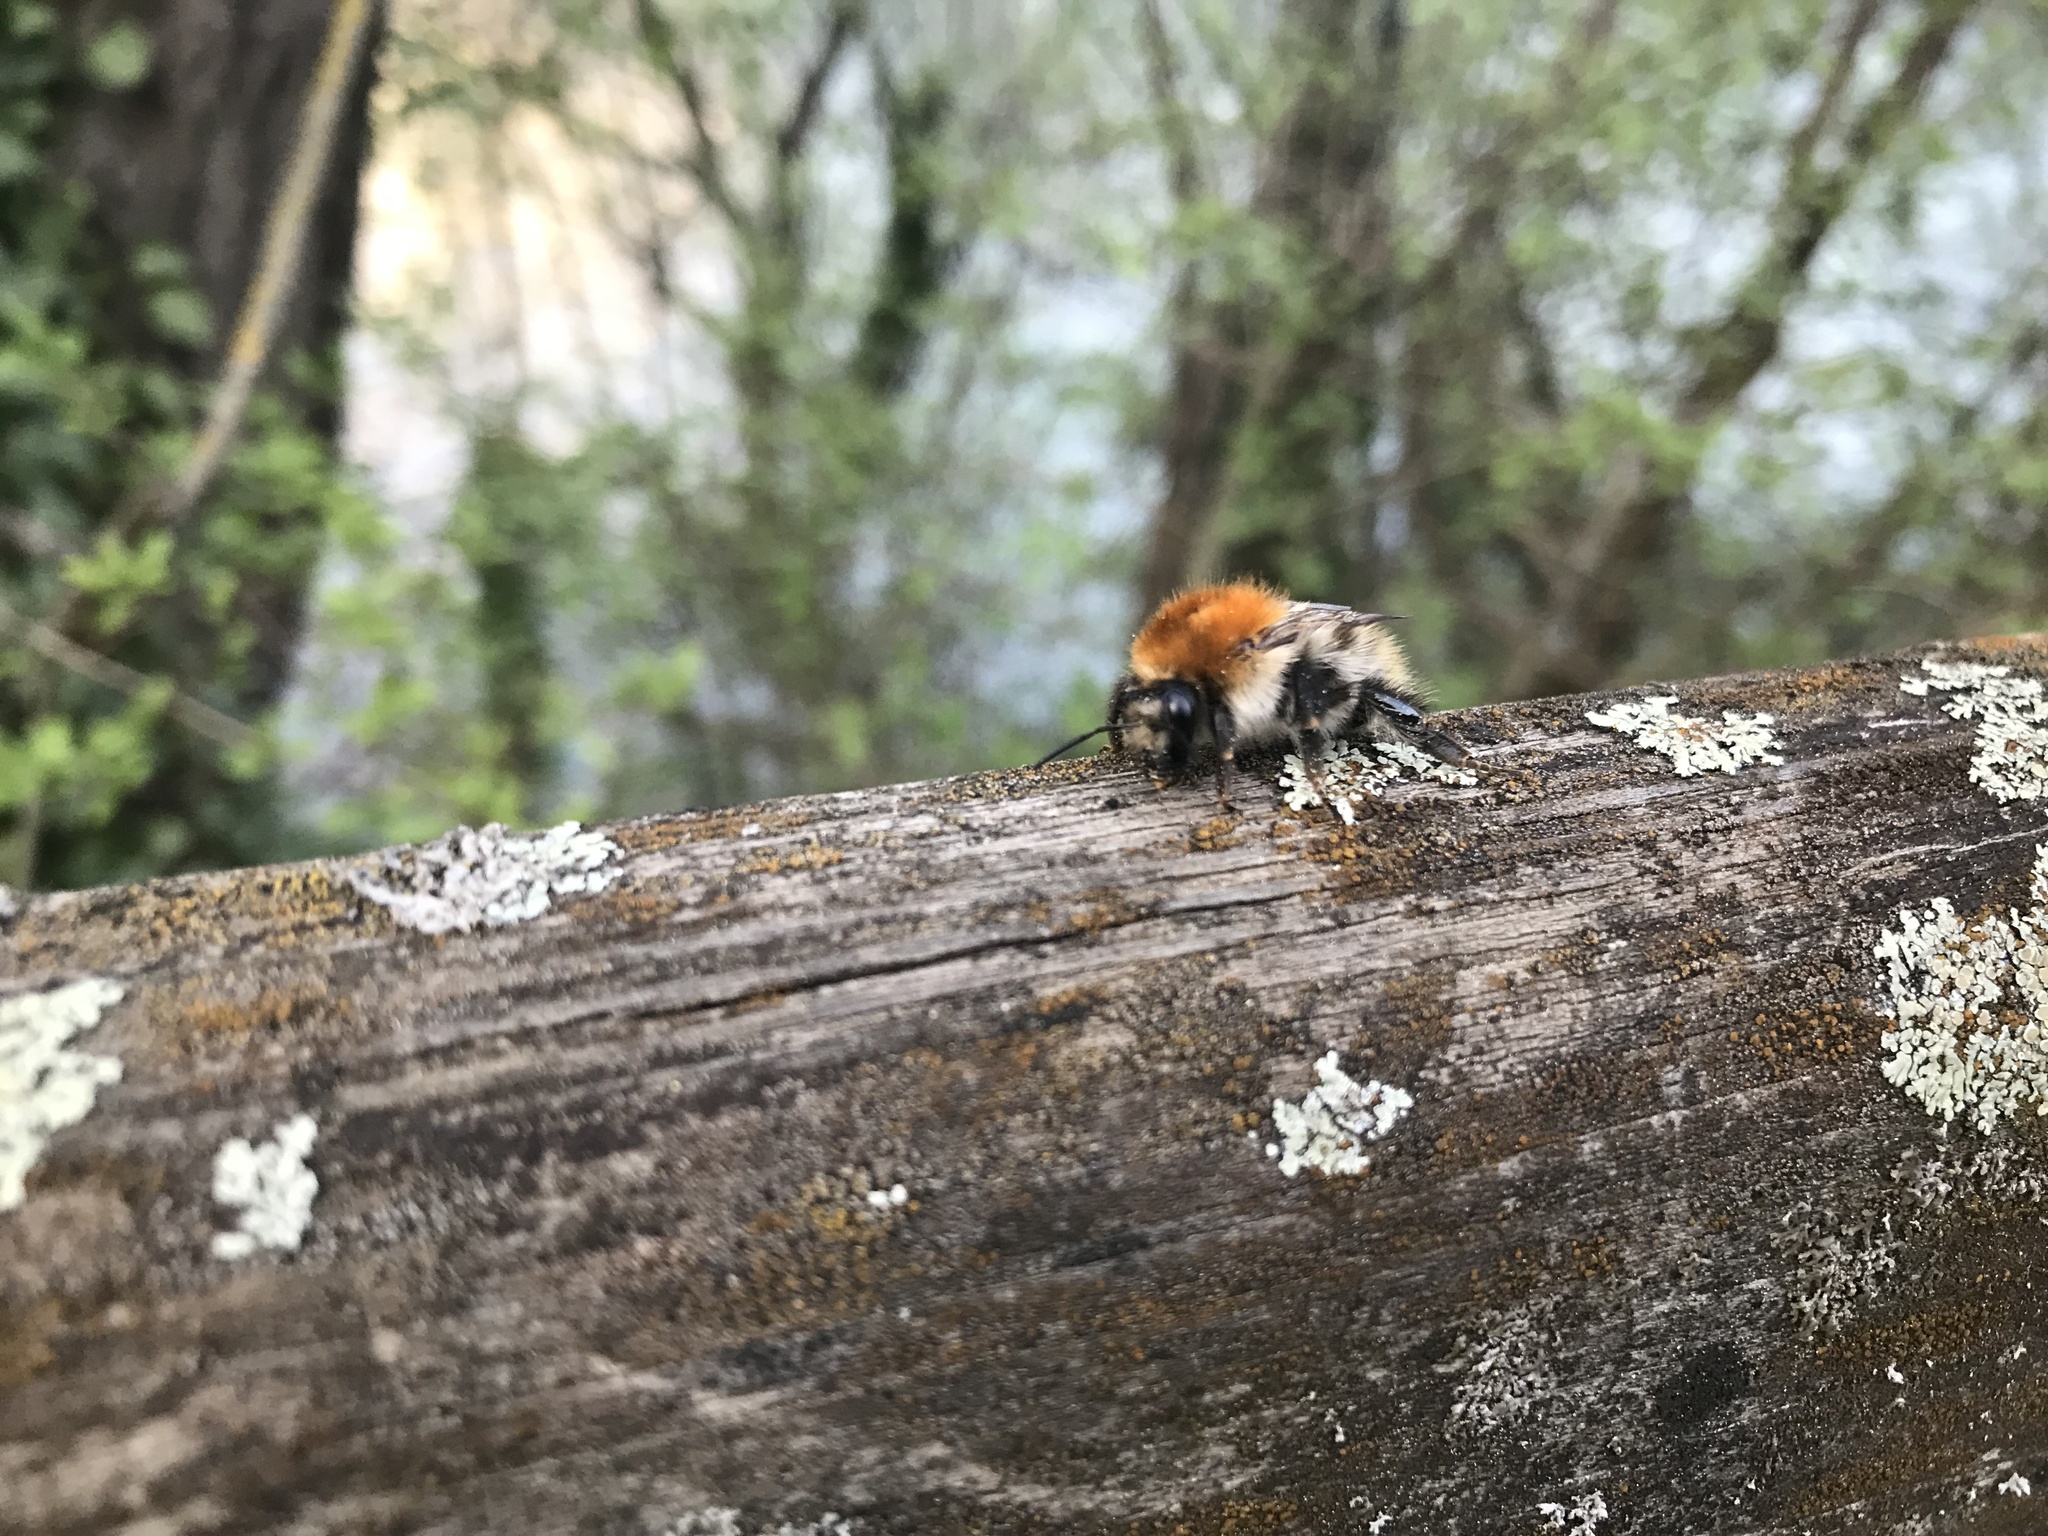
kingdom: Animalia
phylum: Arthropoda
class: Insecta
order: Hymenoptera
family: Apidae
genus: Bombus
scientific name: Bombus pascuorum
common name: Common carder bee
